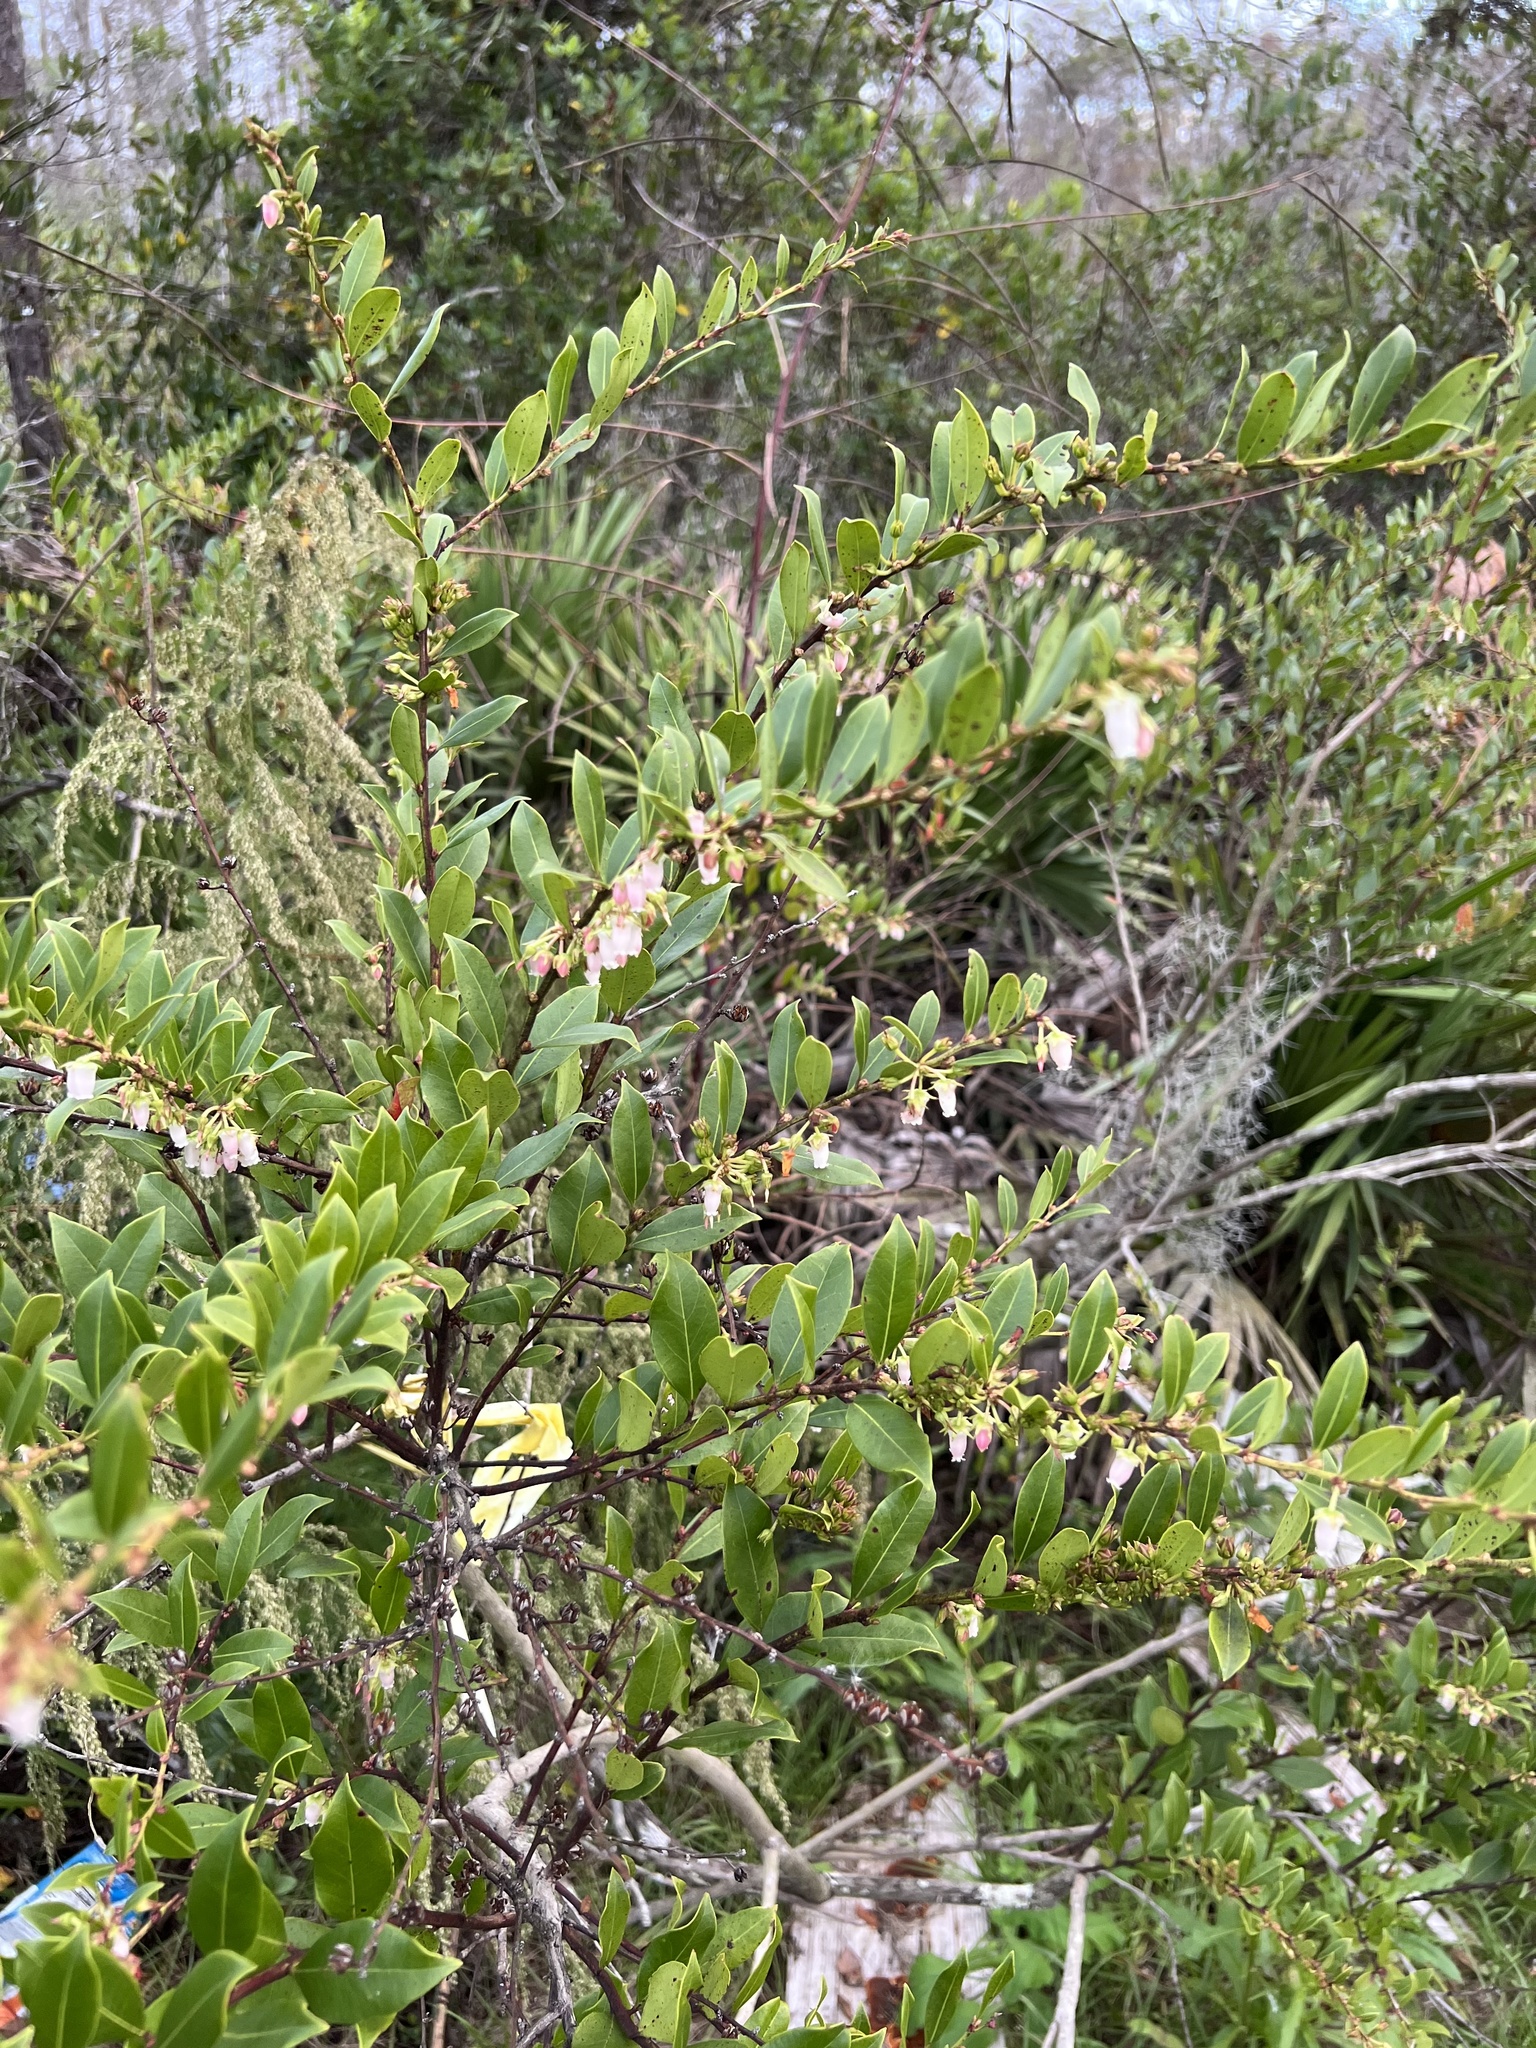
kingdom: Plantae
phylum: Tracheophyta
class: Magnoliopsida
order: Ericales
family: Ericaceae
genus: Lyonia
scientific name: Lyonia lucida
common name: Fetterbush
